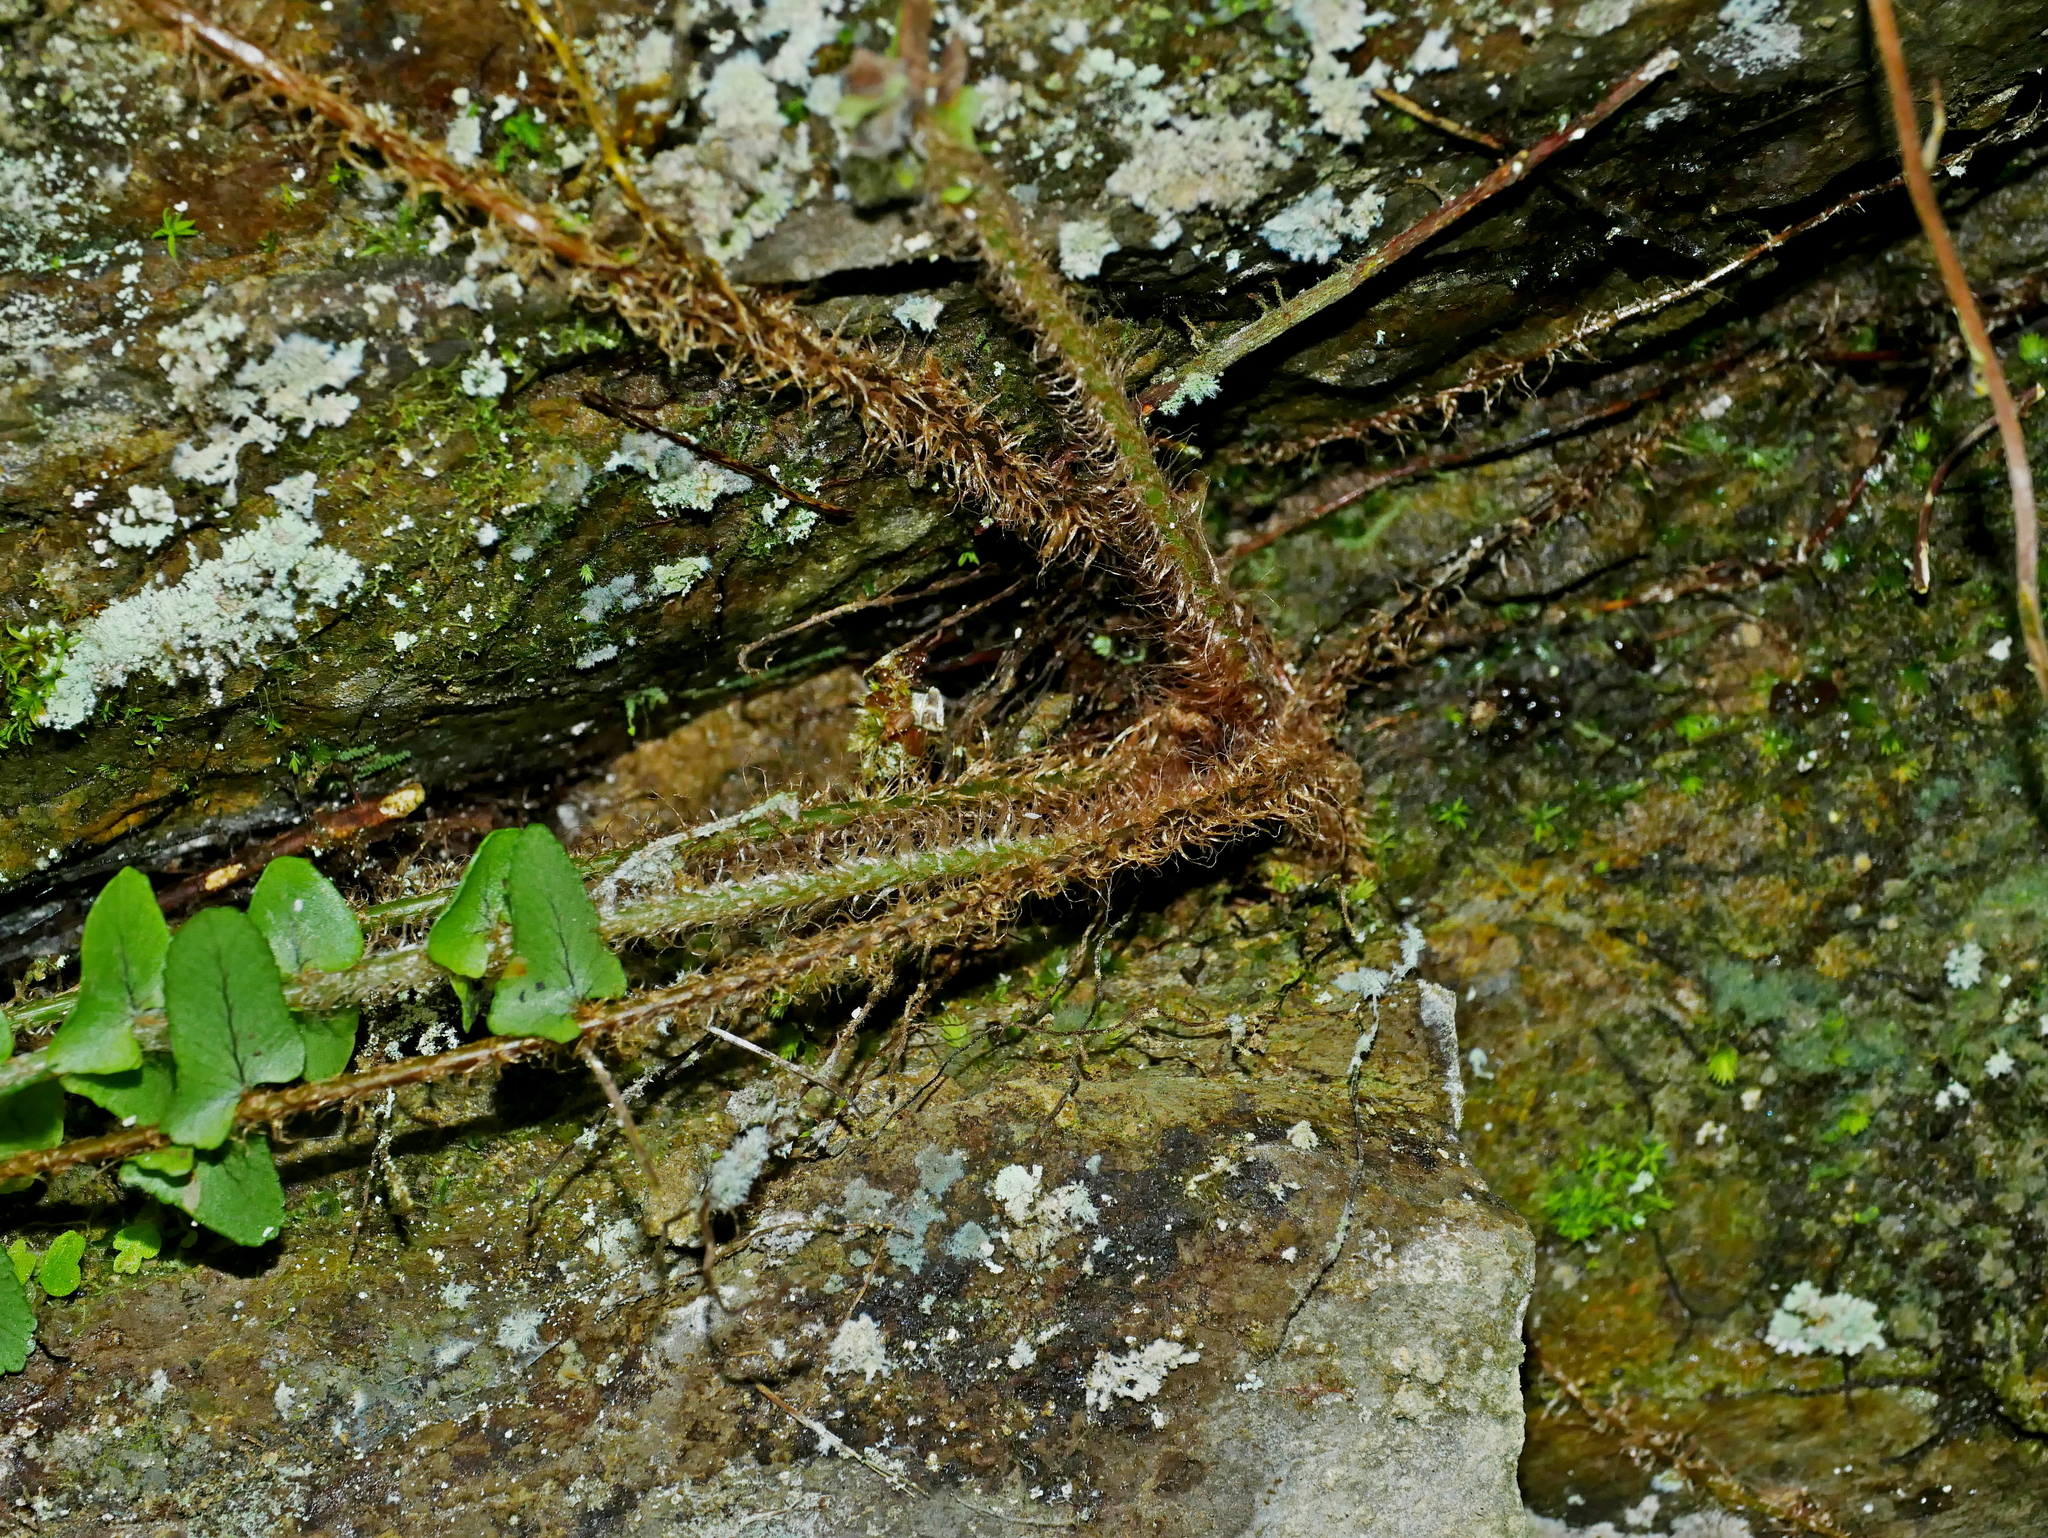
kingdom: Plantae
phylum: Tracheophyta
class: Polypodiopsida
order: Polypodiales
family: Nephrolepidaceae
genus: Nephrolepis
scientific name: Nephrolepis cordifolia
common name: Narrow swordfern
